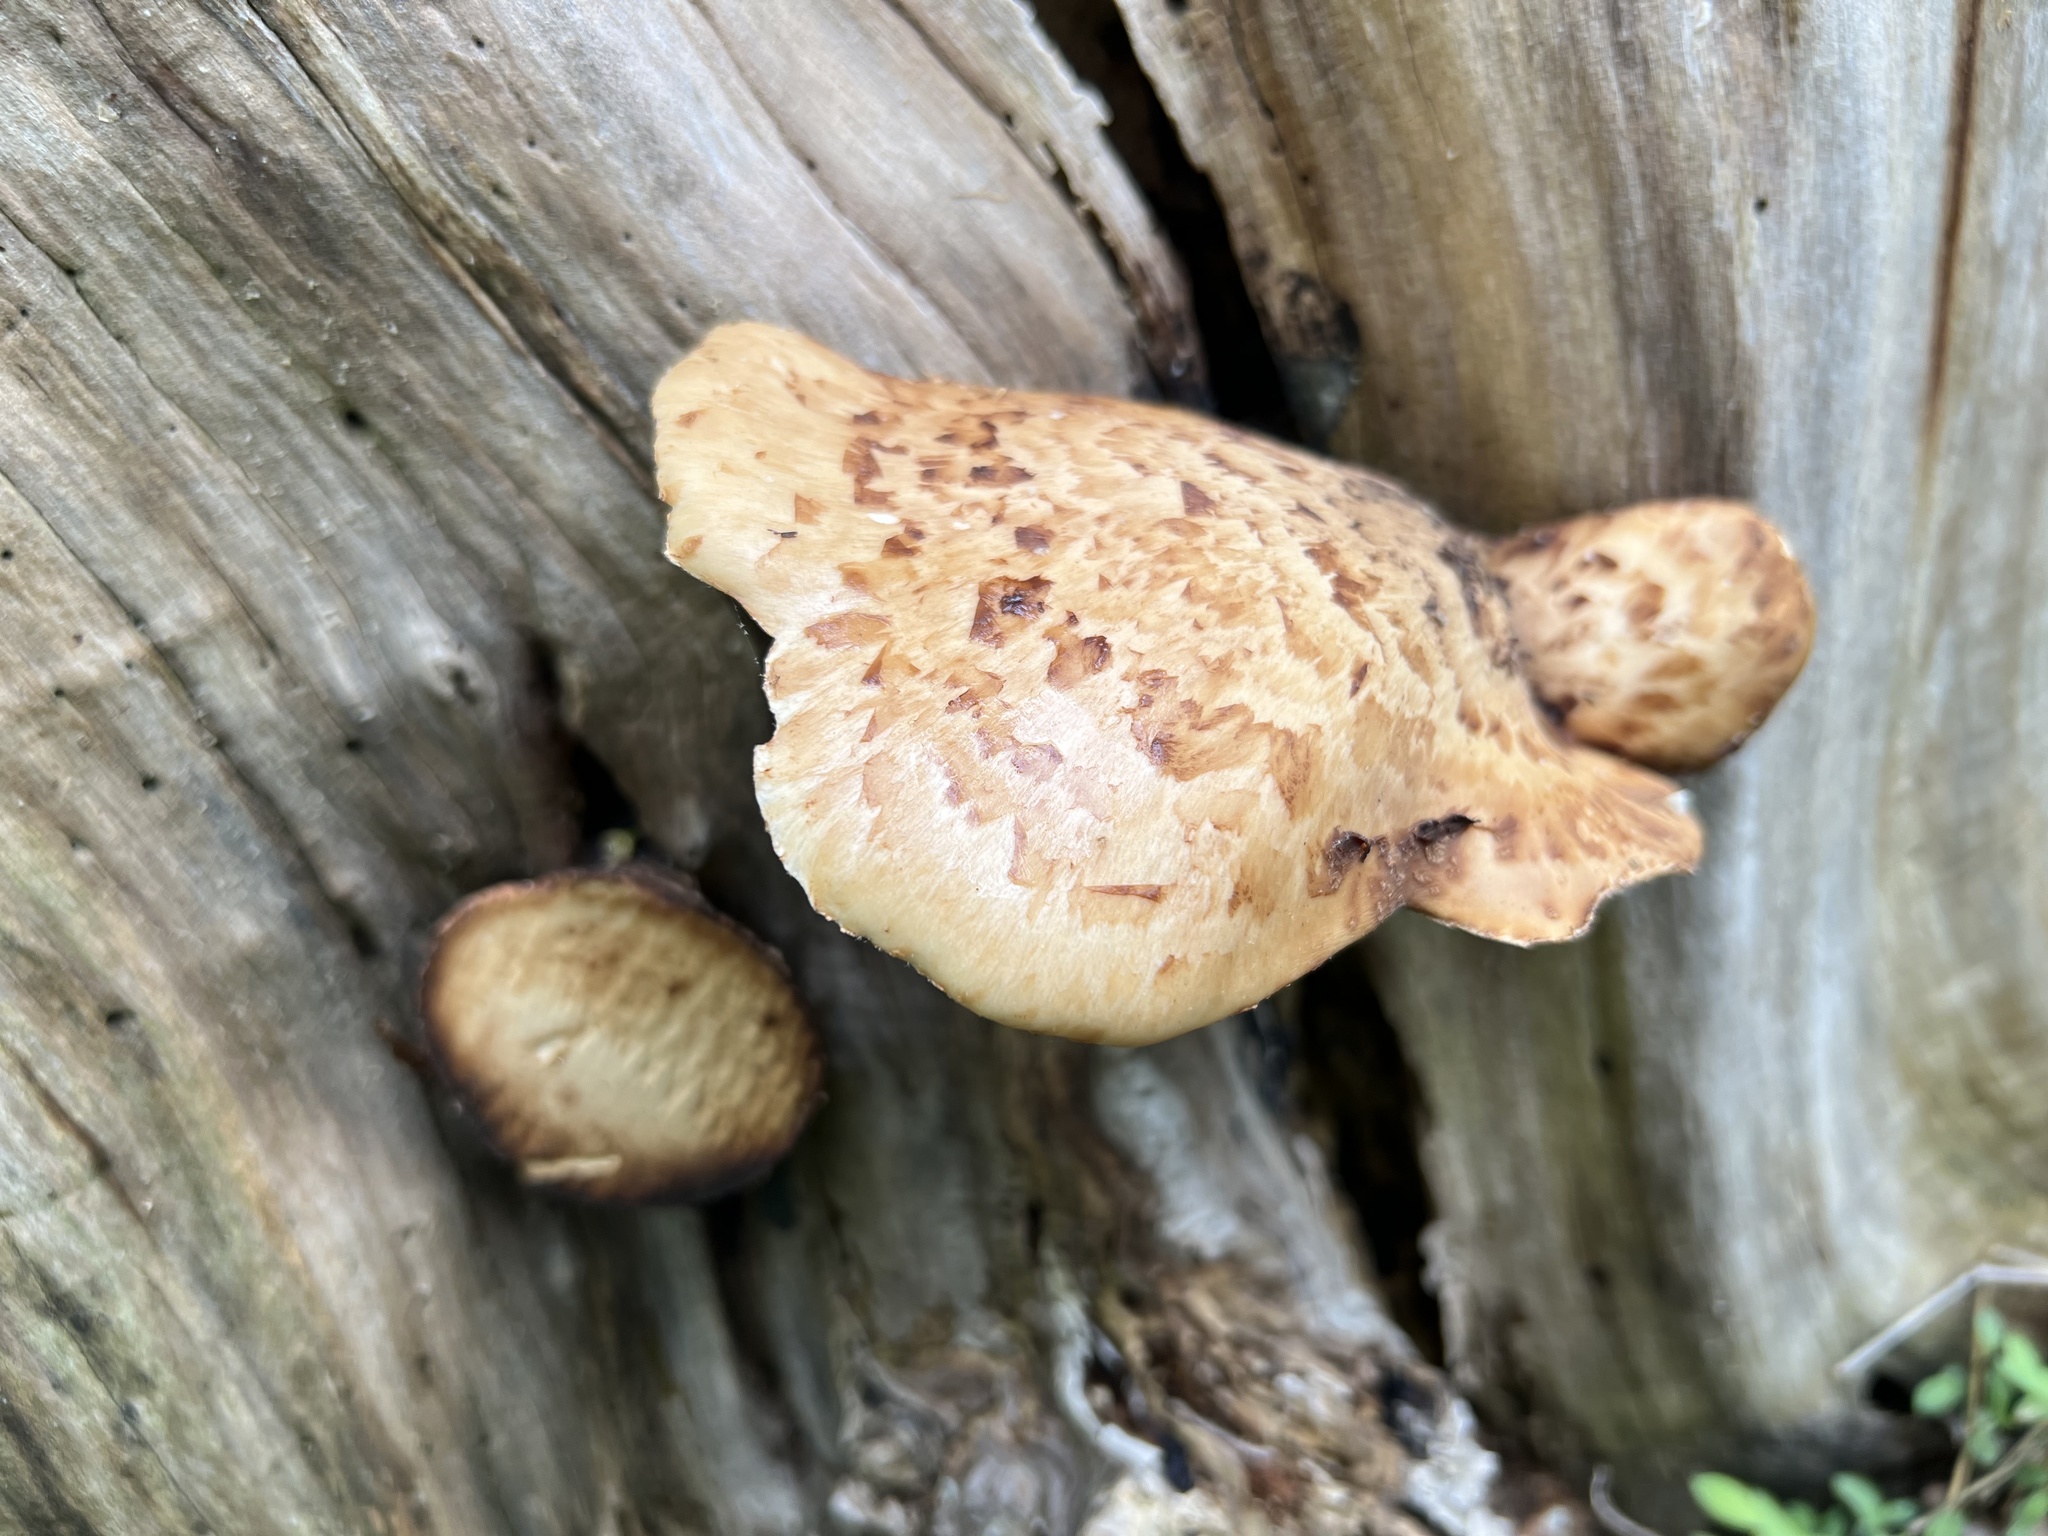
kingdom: Fungi
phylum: Basidiomycota
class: Agaricomycetes
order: Polyporales
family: Polyporaceae
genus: Cerioporus
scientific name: Cerioporus squamosus
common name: Dryad's saddle
